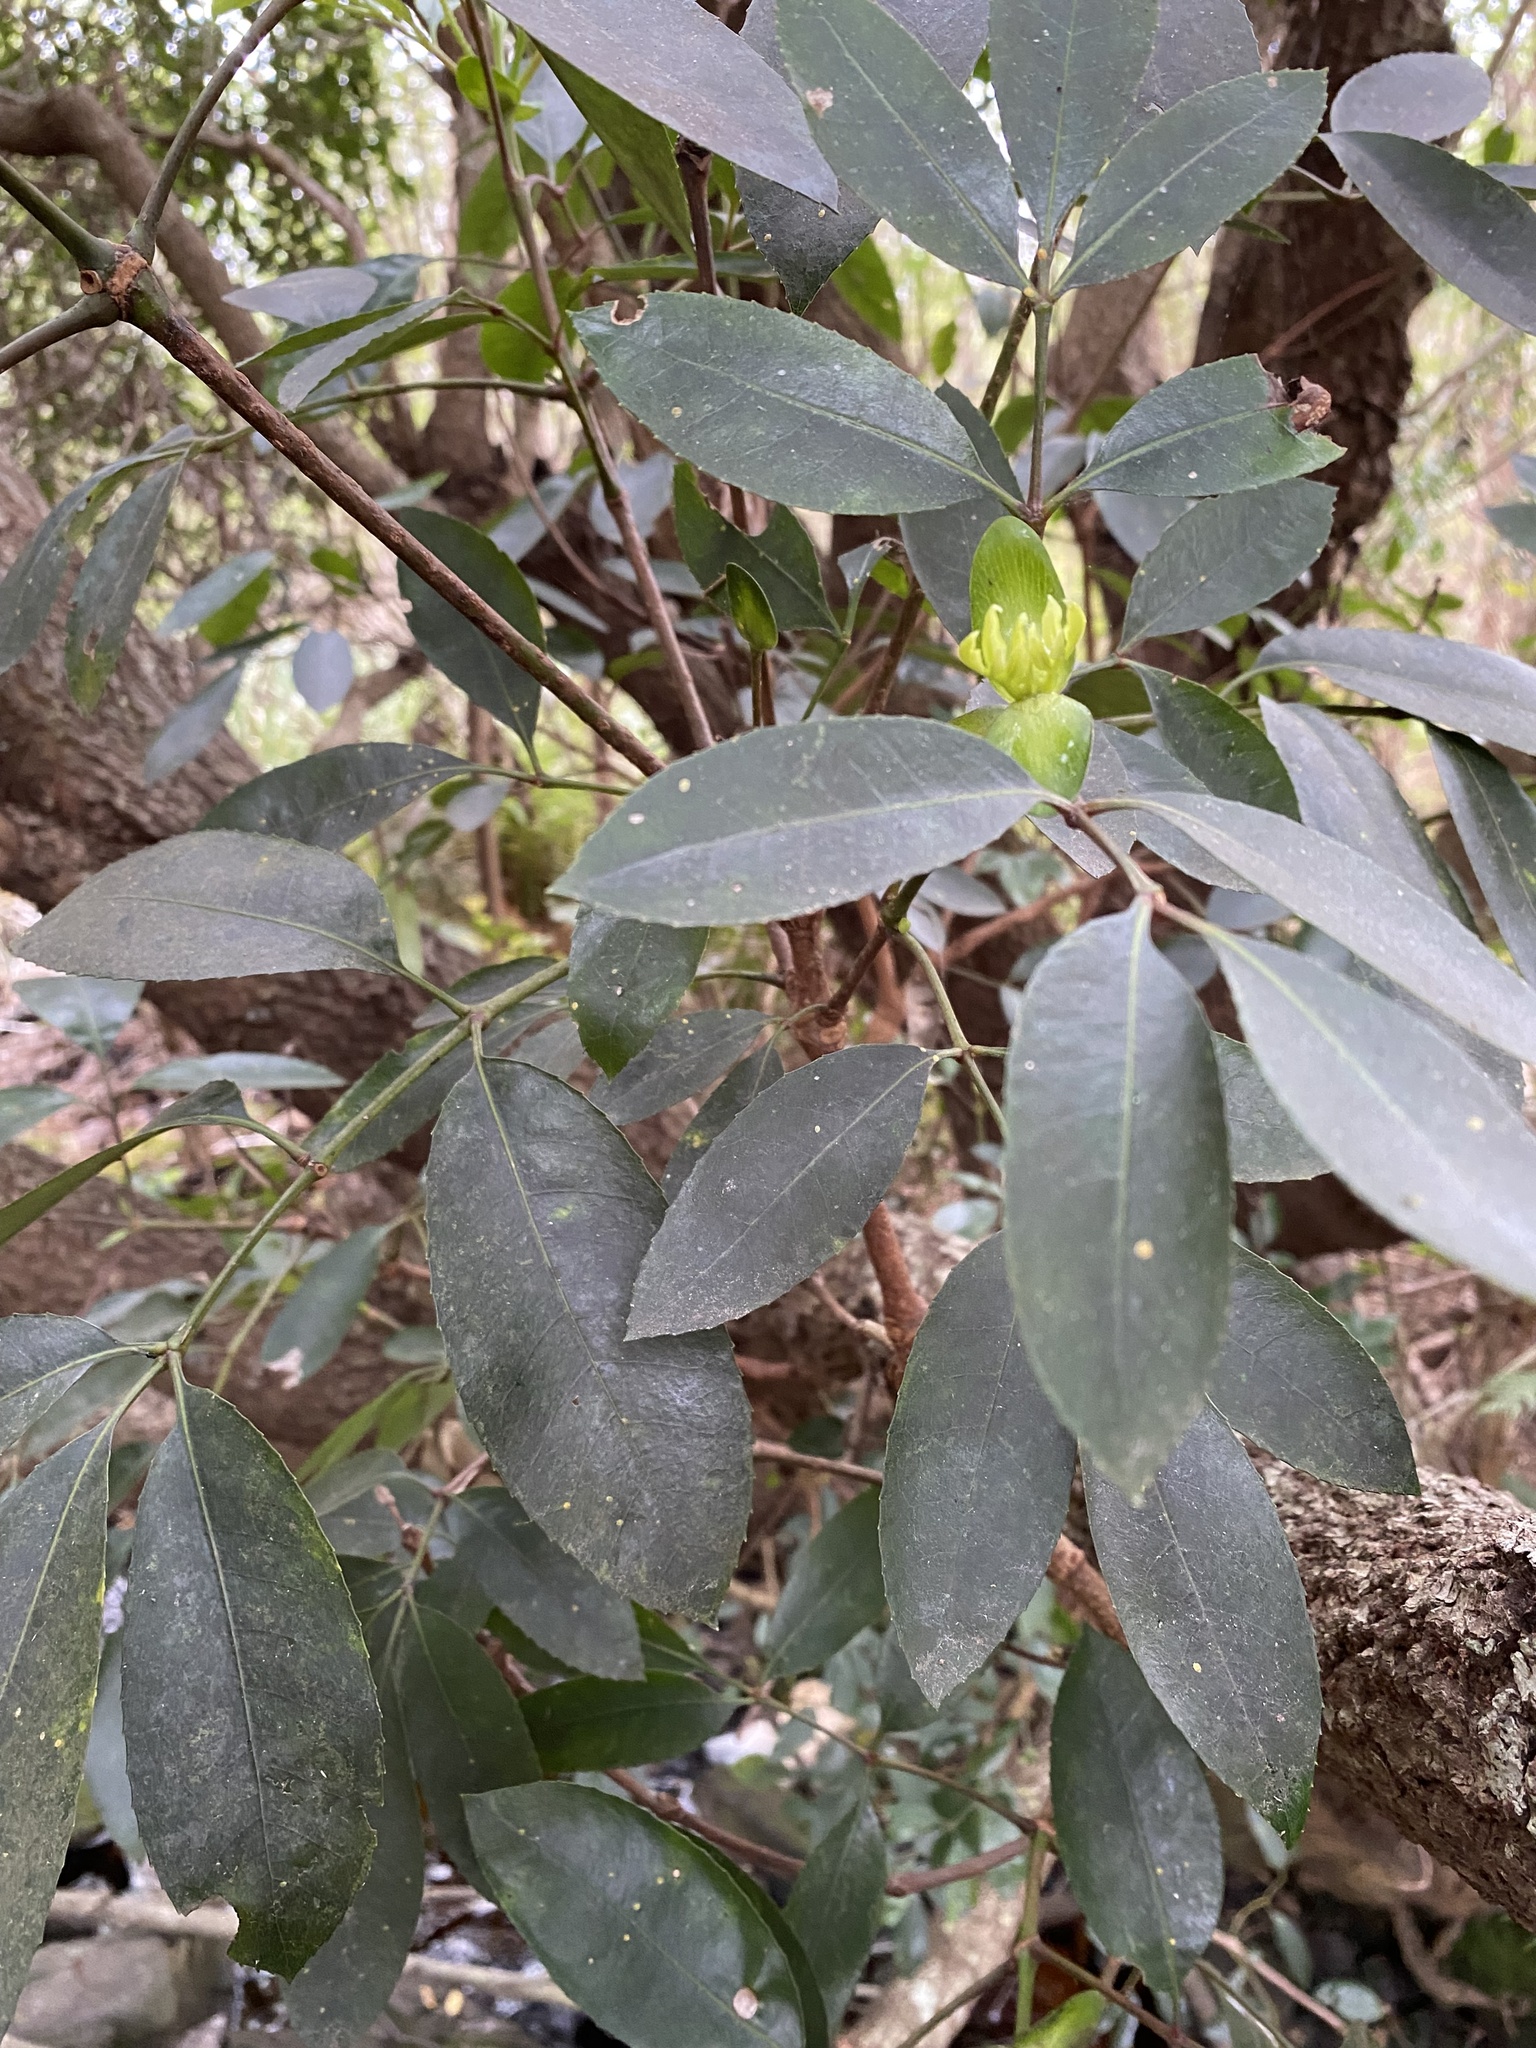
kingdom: Plantae
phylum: Tracheophyta
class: Magnoliopsida
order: Oxalidales
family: Cunoniaceae
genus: Cunonia
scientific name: Cunonia capensis
